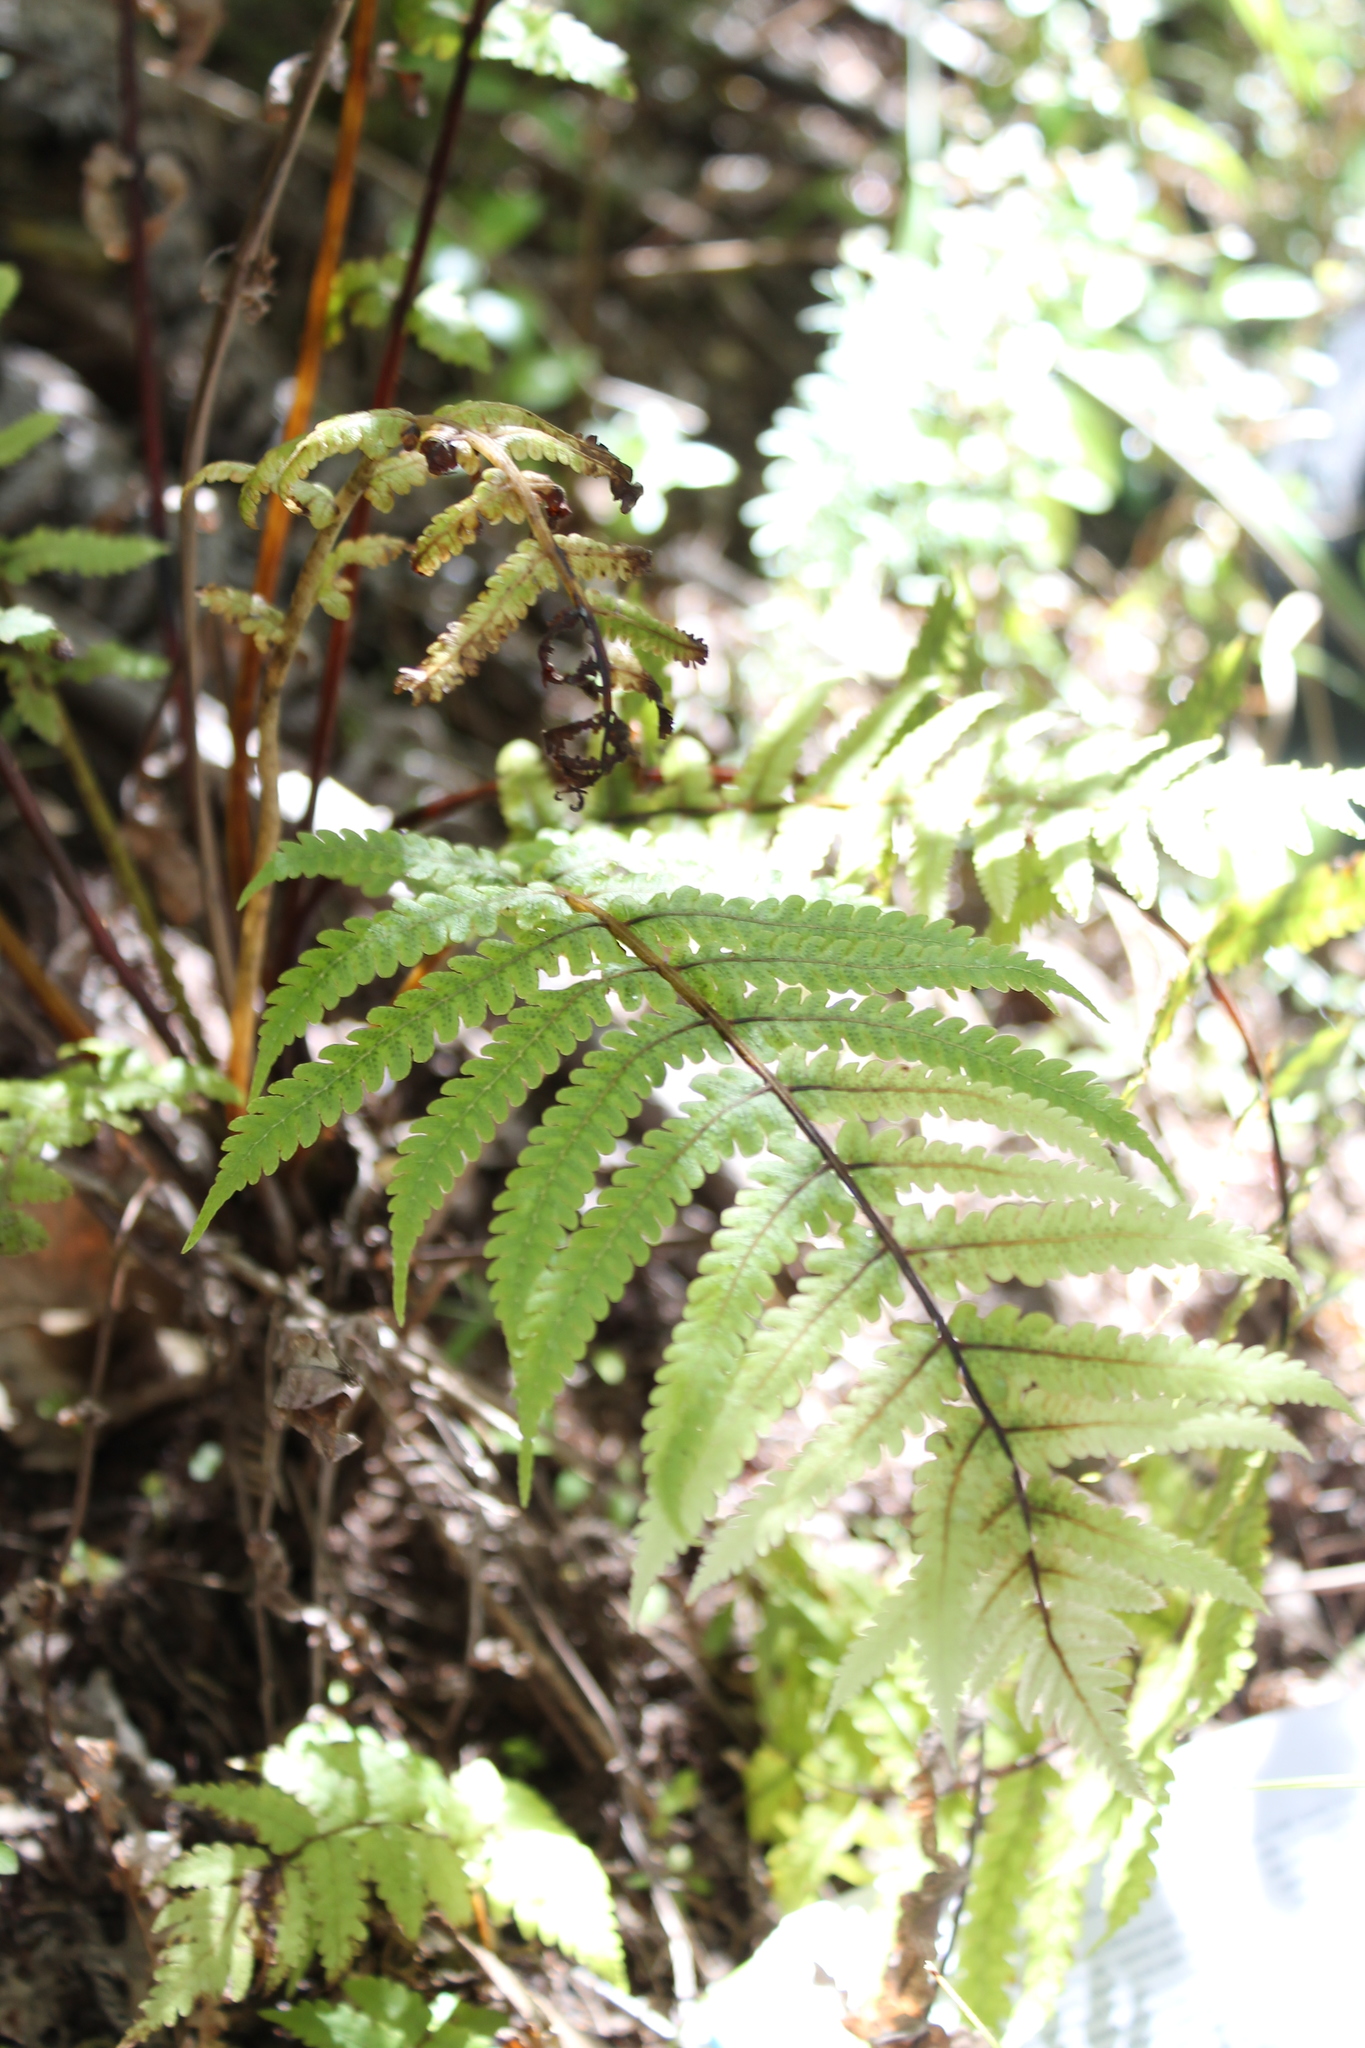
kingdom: Plantae
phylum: Tracheophyta
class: Polypodiopsida
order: Polypodiales
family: Thelypteridaceae
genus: Pakau
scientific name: Pakau pennigera
